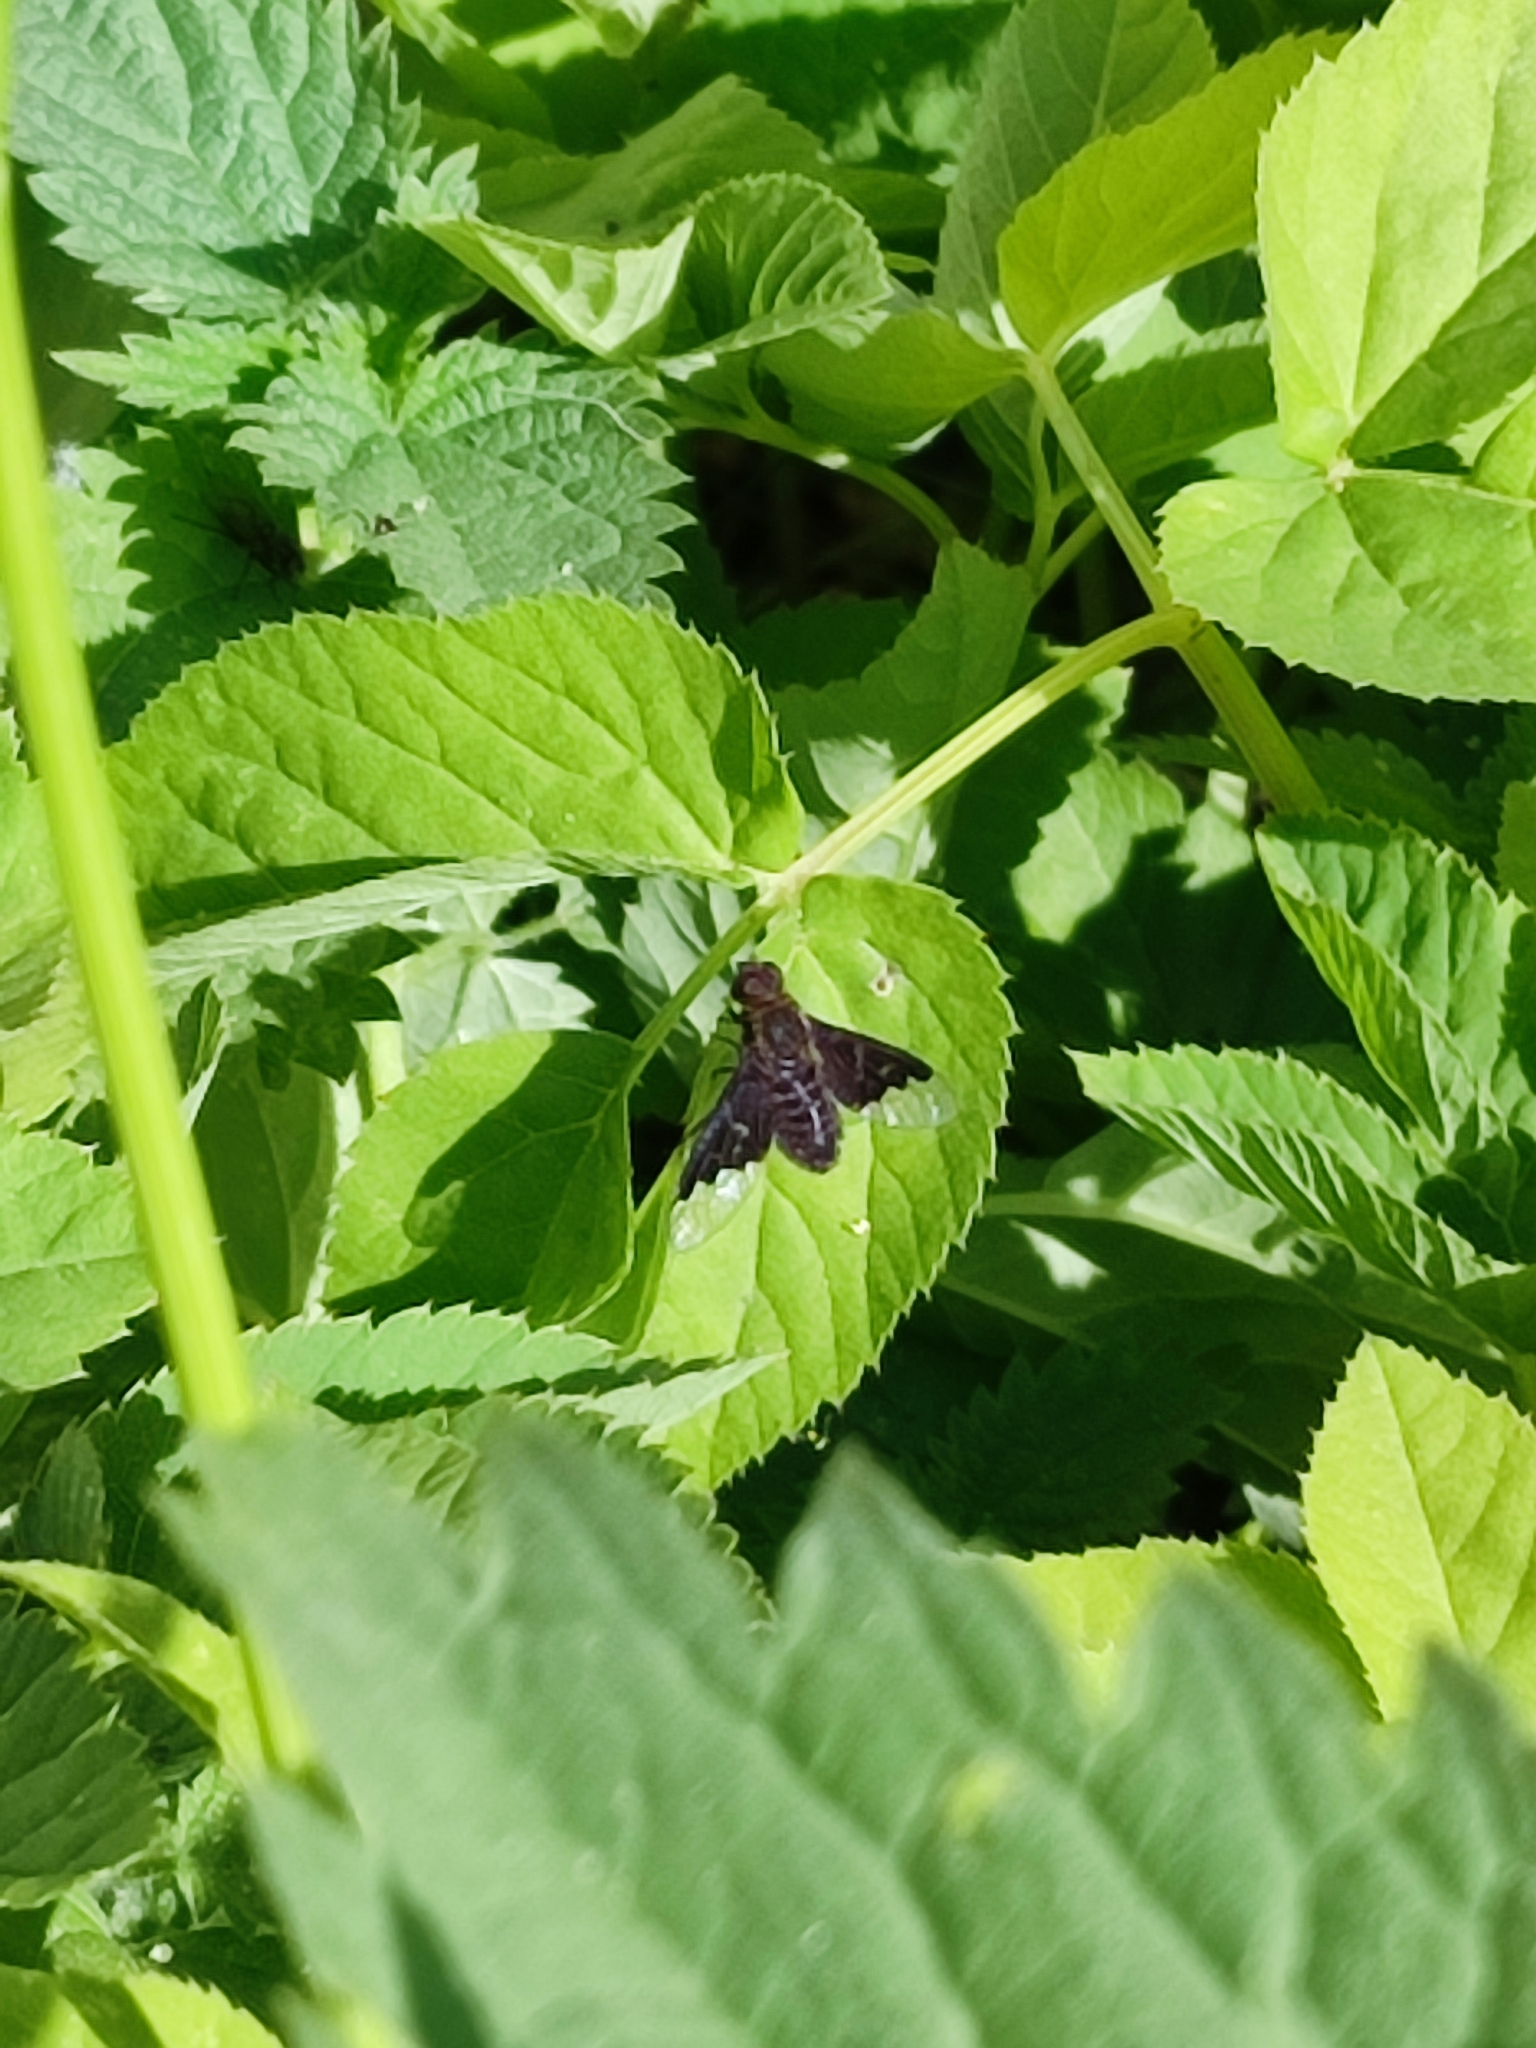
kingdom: Animalia
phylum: Arthropoda
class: Insecta
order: Diptera
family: Bombyliidae
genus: Hemipenthes
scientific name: Hemipenthes morio
